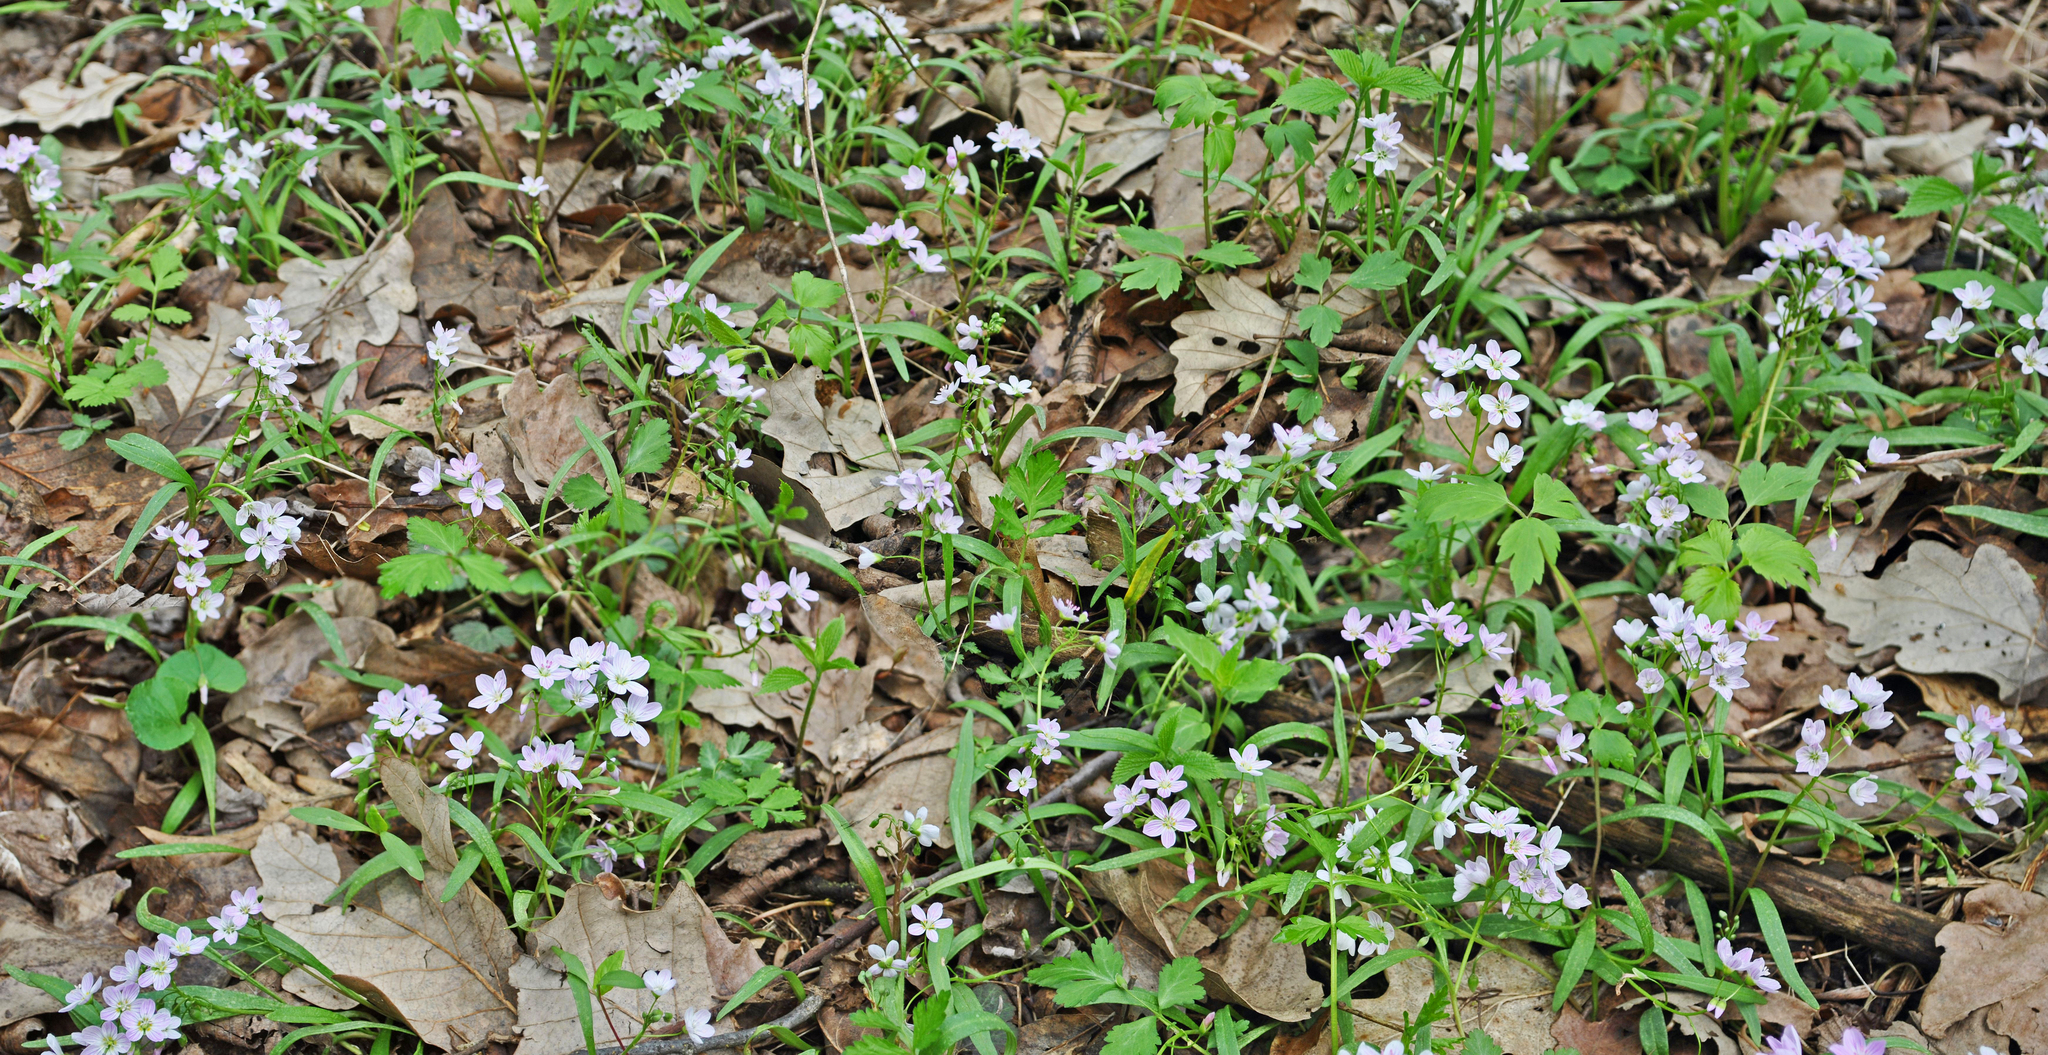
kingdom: Plantae
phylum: Tracheophyta
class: Magnoliopsida
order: Caryophyllales
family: Montiaceae
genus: Claytonia
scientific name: Claytonia virginica
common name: Virginia springbeauty
